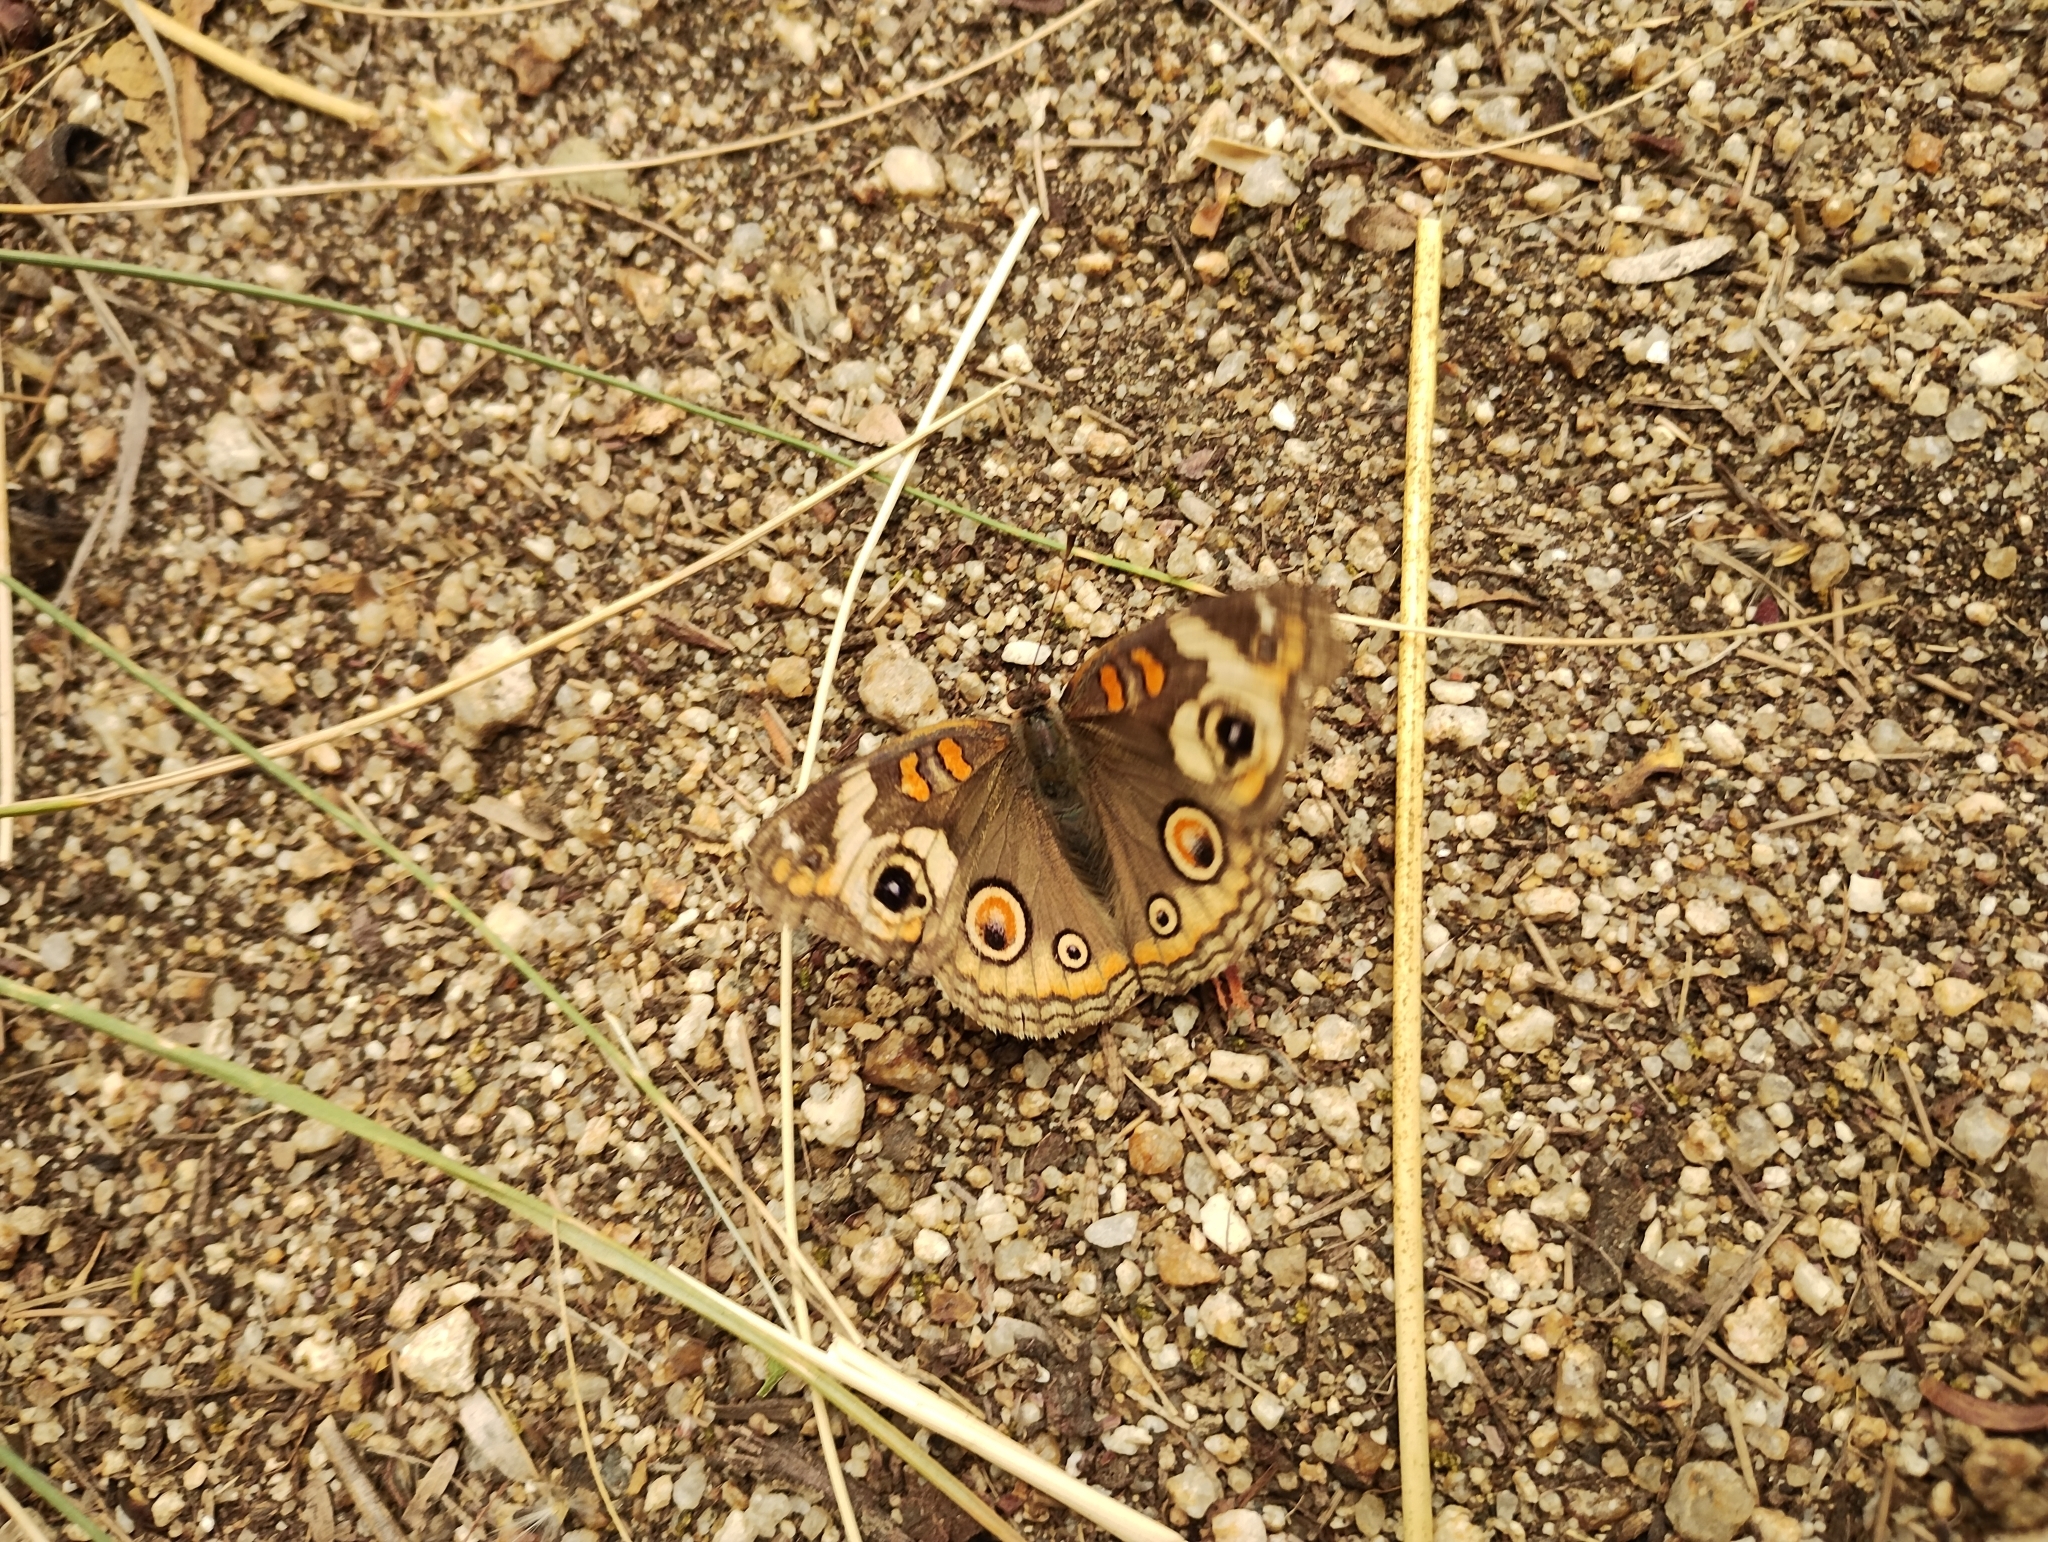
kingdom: Animalia
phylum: Arthropoda
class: Insecta
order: Lepidoptera
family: Nymphalidae
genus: Junonia
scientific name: Junonia grisea
